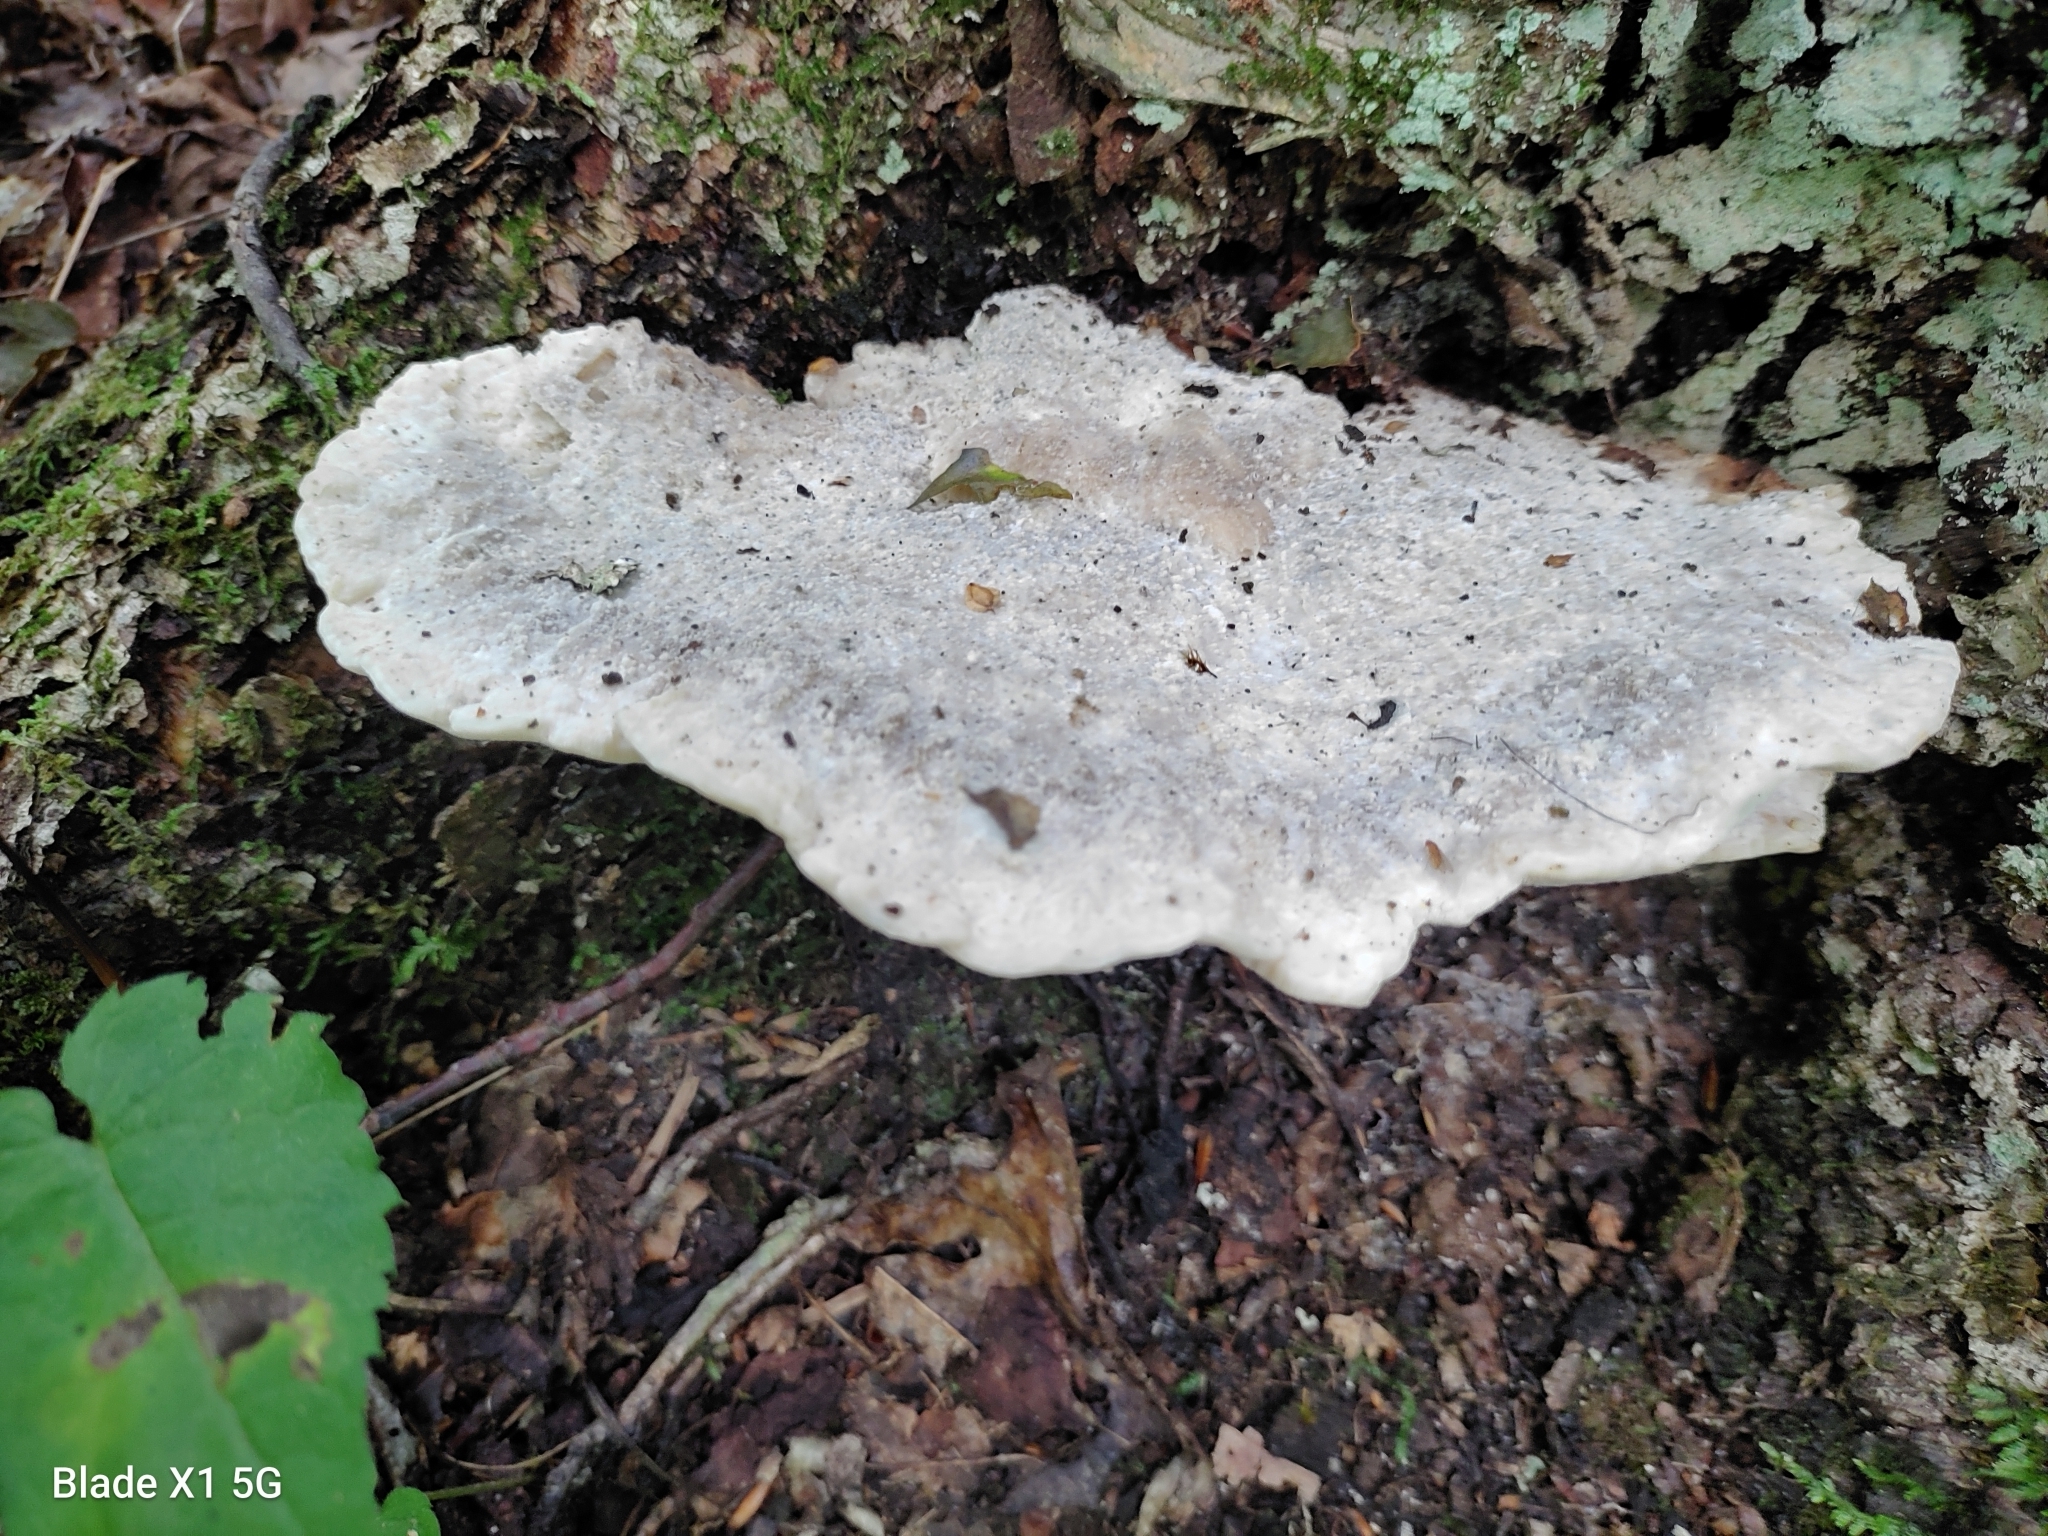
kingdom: Fungi
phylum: Basidiomycota
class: Agaricomycetes
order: Polyporales
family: Fomitopsidaceae
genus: Niveoporofomes
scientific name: Niveoporofomes spraguei
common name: Green cheese polypore
